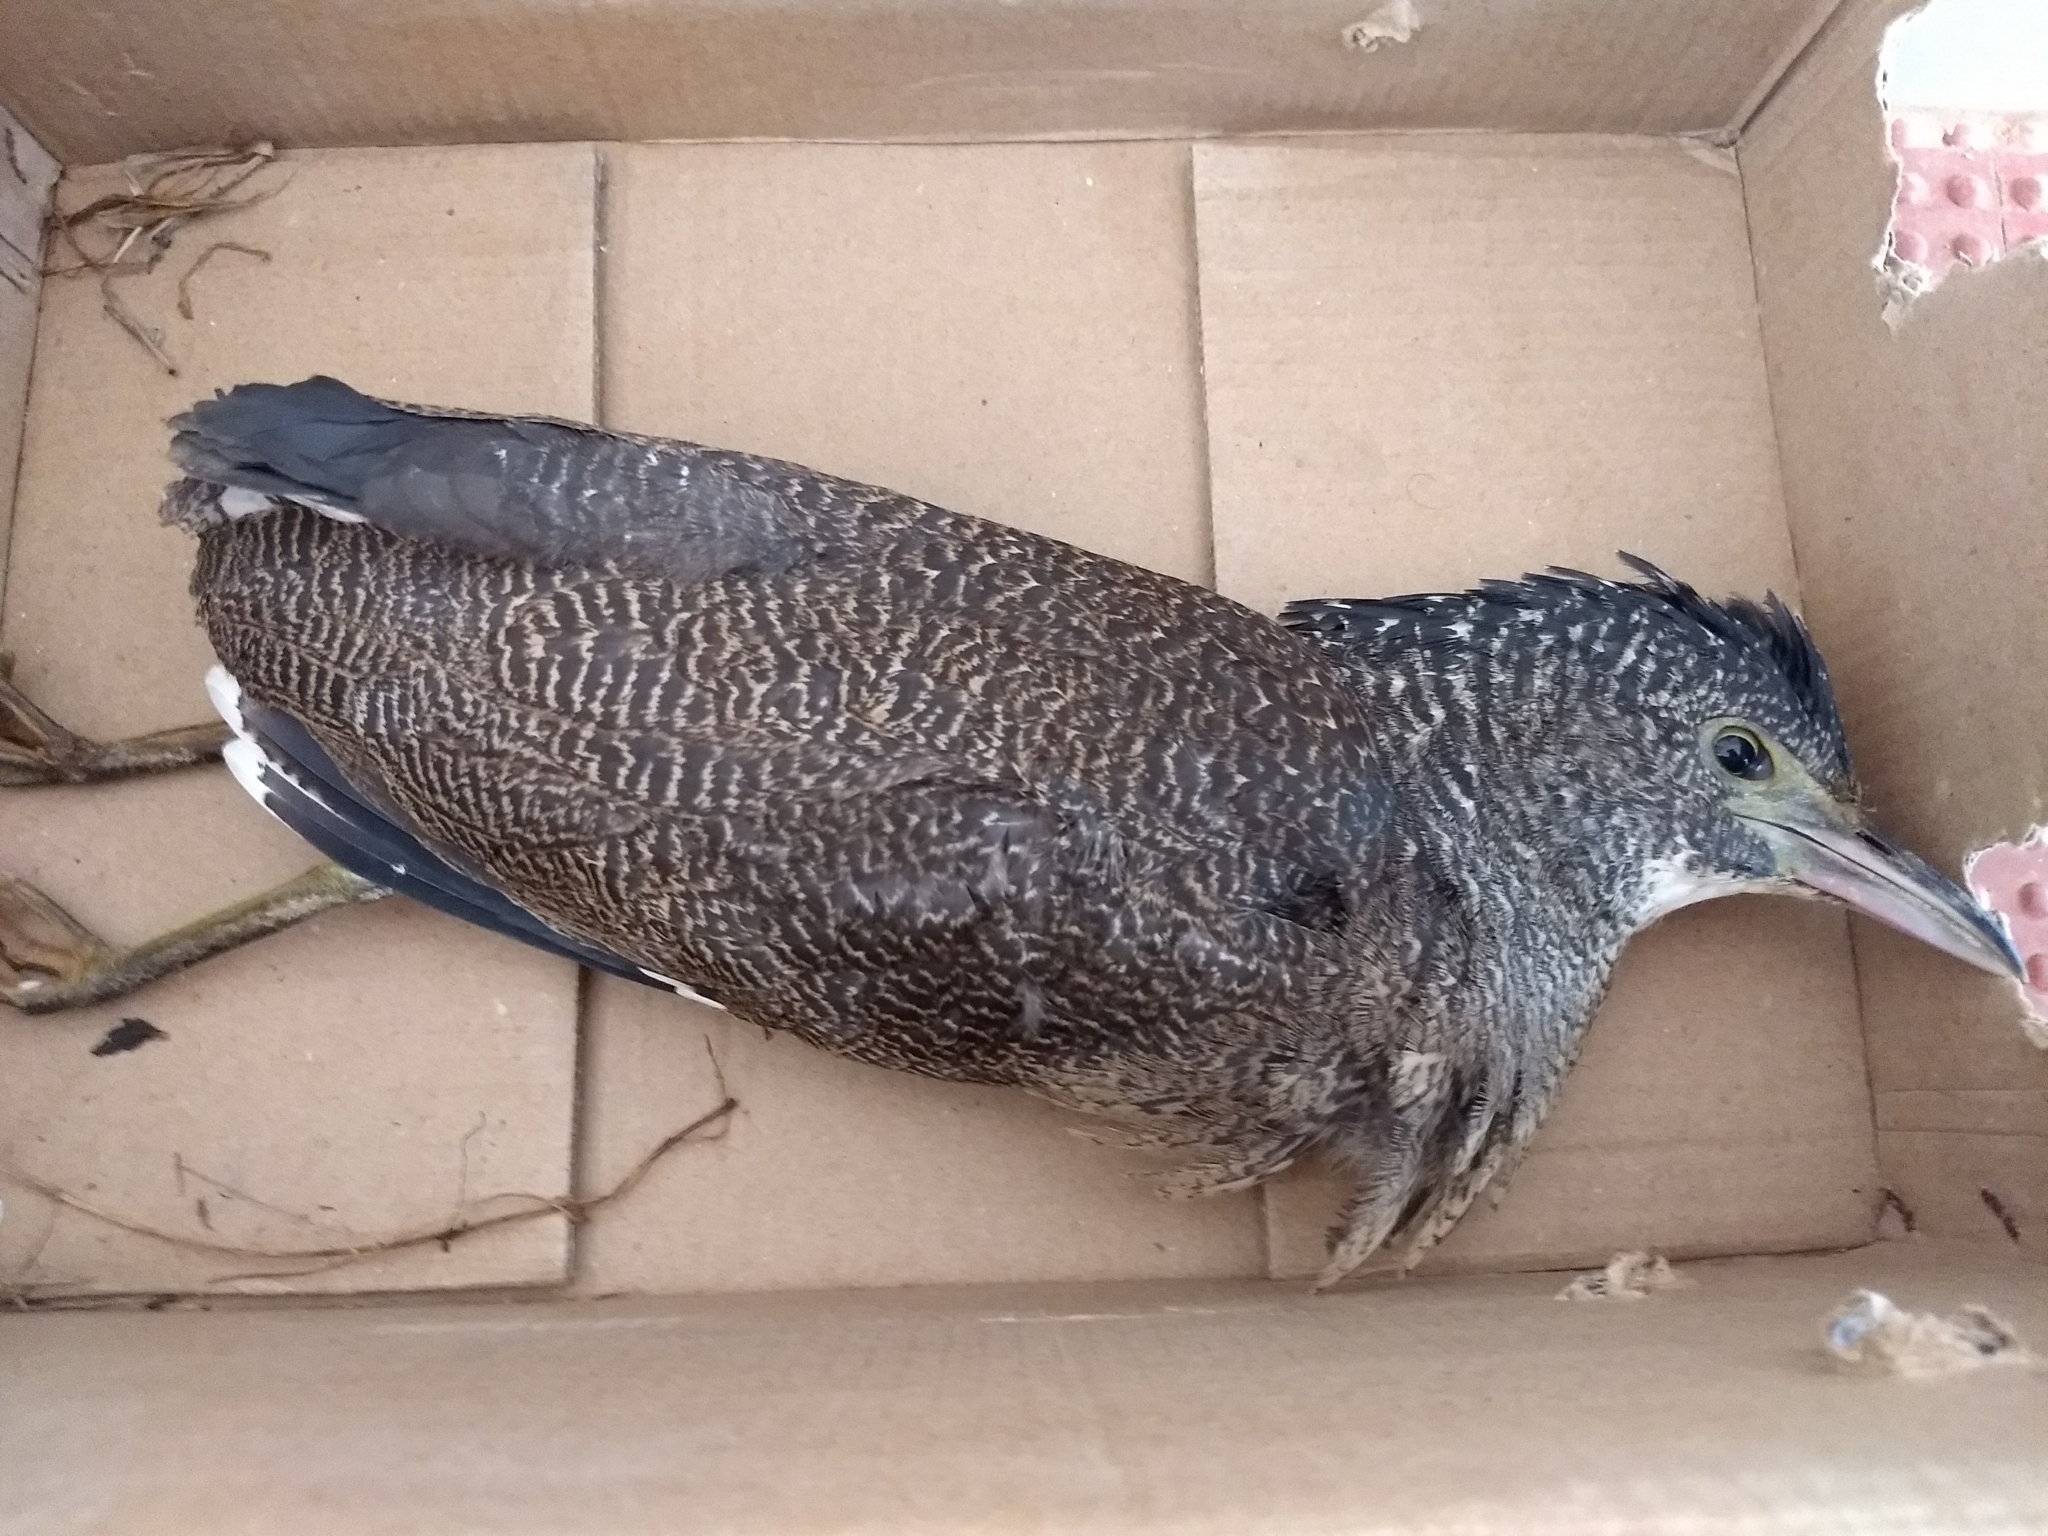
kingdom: Animalia
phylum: Chordata
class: Aves
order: Pelecaniformes
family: Ardeidae
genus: Gorsachius
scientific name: Gorsachius melanolophus
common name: Malayan night heron
